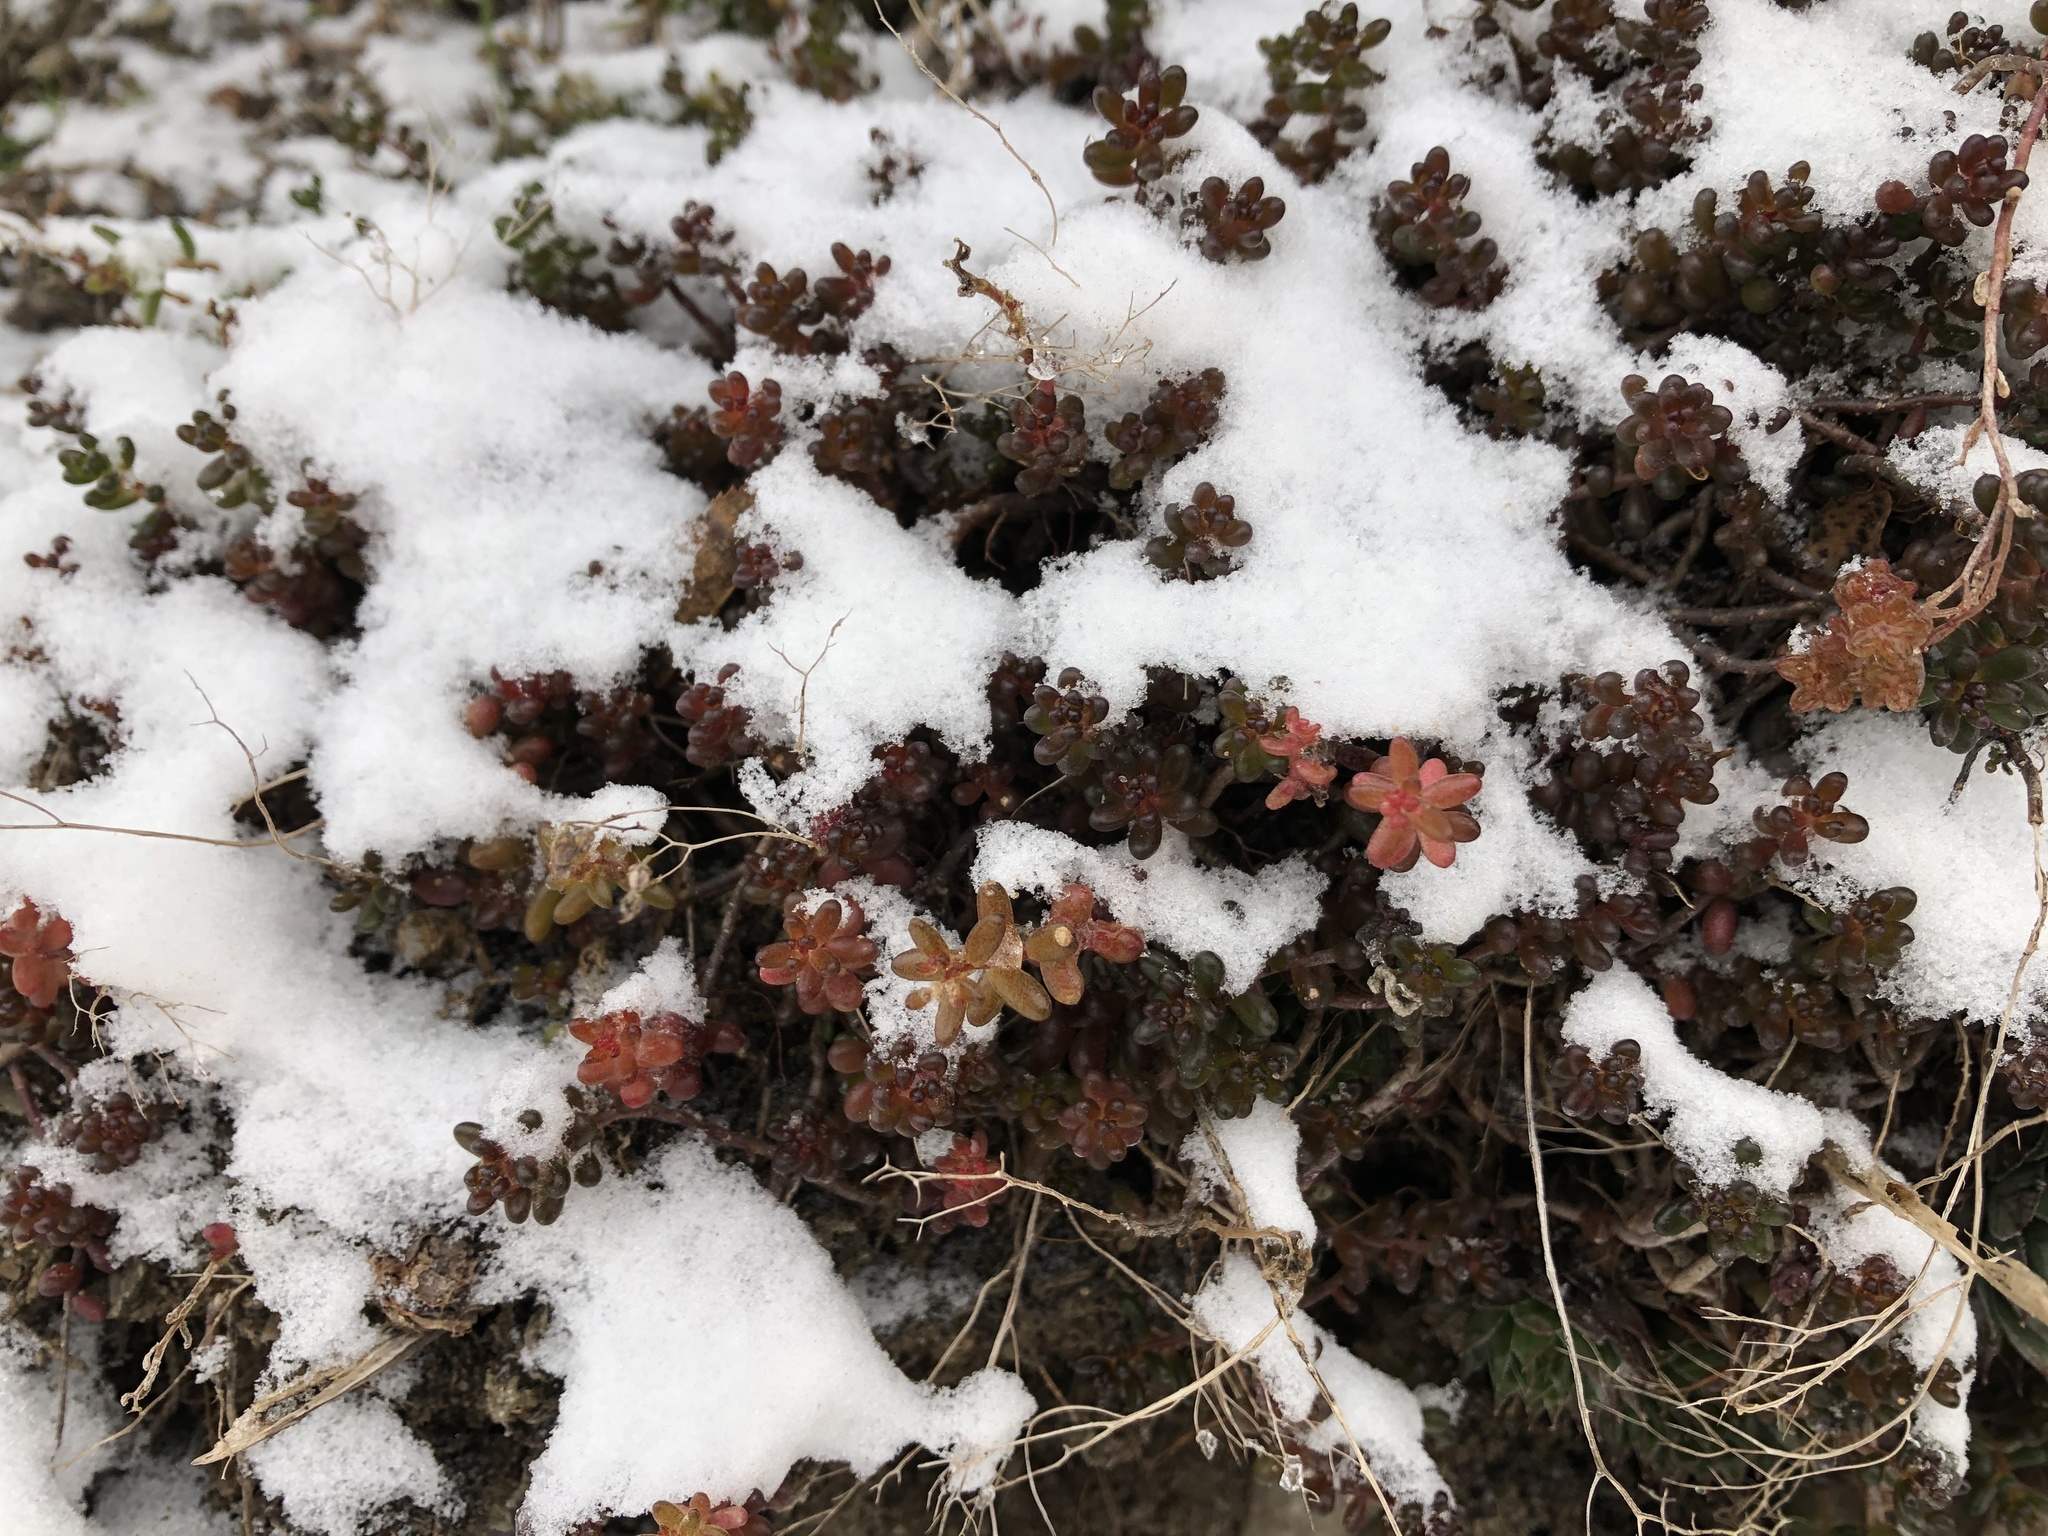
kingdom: Plantae
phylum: Tracheophyta
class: Magnoliopsida
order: Saxifragales
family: Crassulaceae
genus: Sedum
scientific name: Sedum album
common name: White stonecrop
